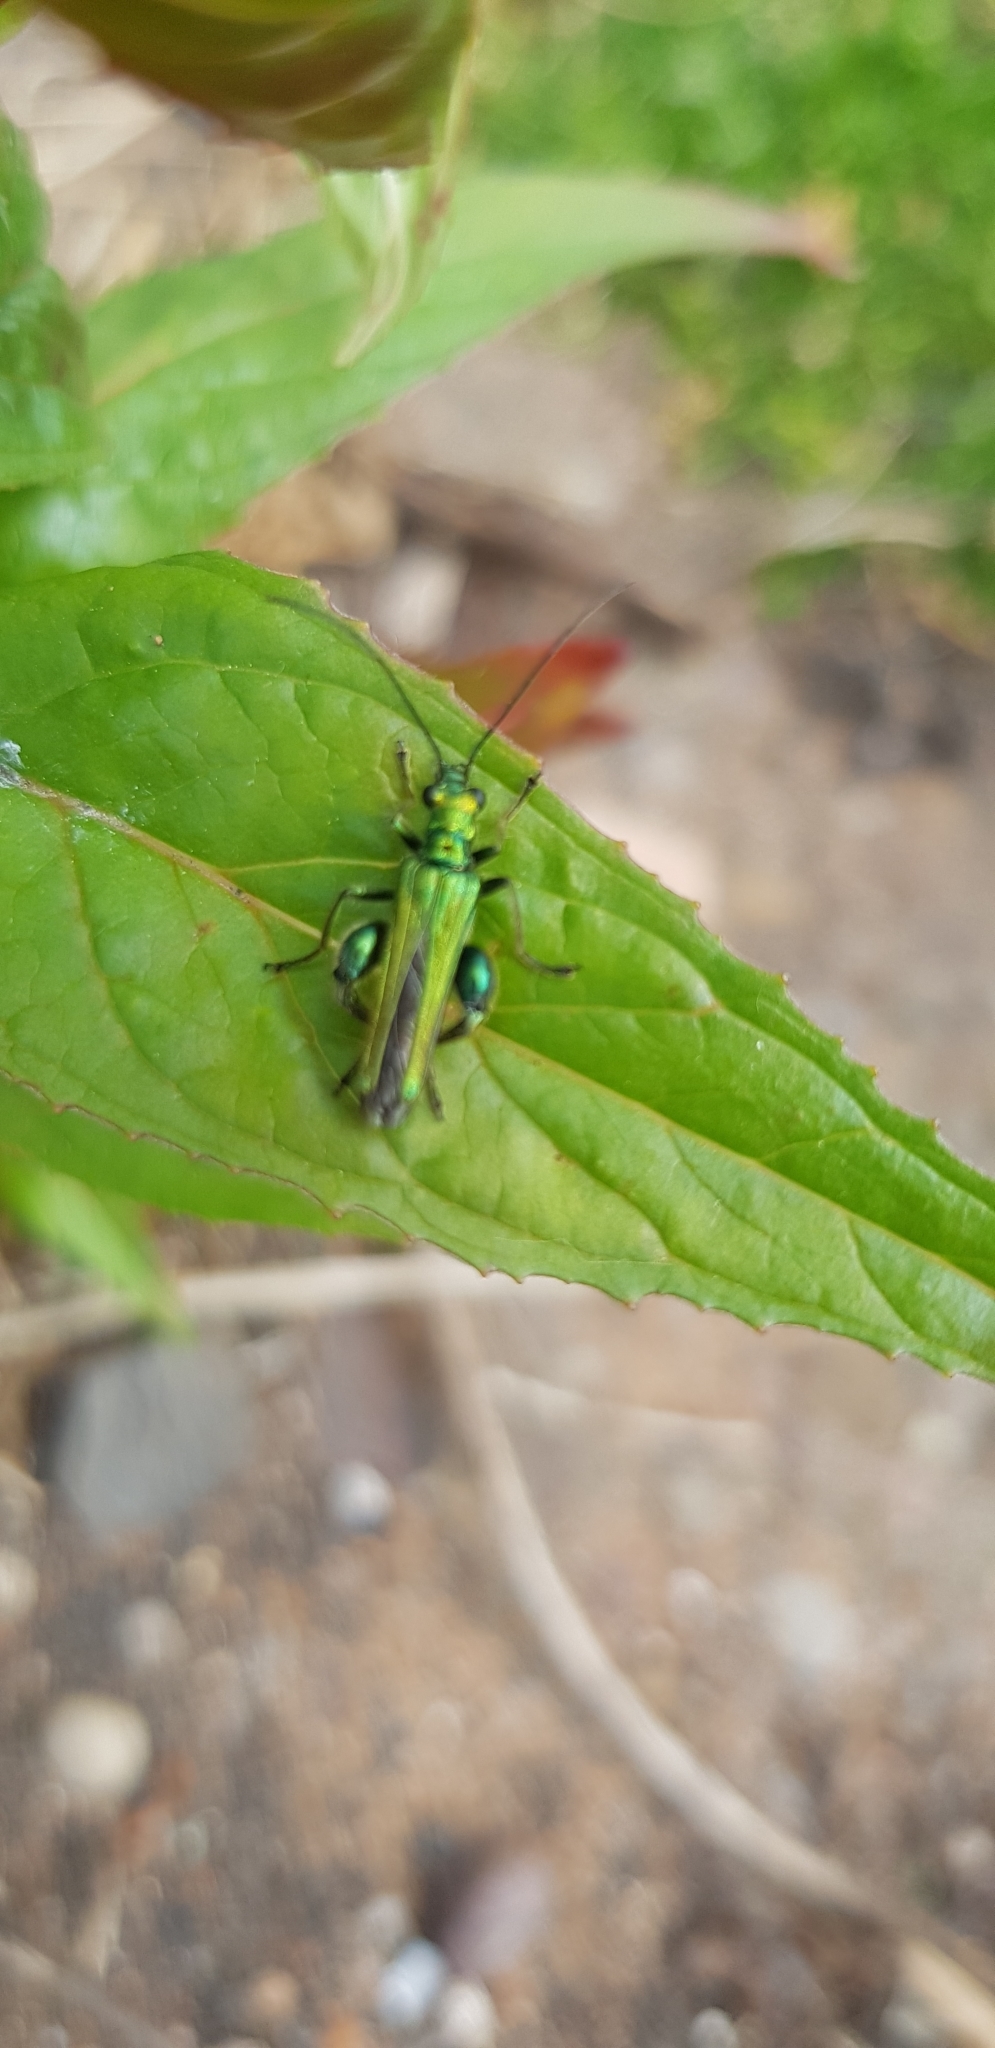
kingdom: Animalia
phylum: Arthropoda
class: Insecta
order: Coleoptera
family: Oedemeridae
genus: Oedemera
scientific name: Oedemera nobilis
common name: Swollen-thighed beetle
